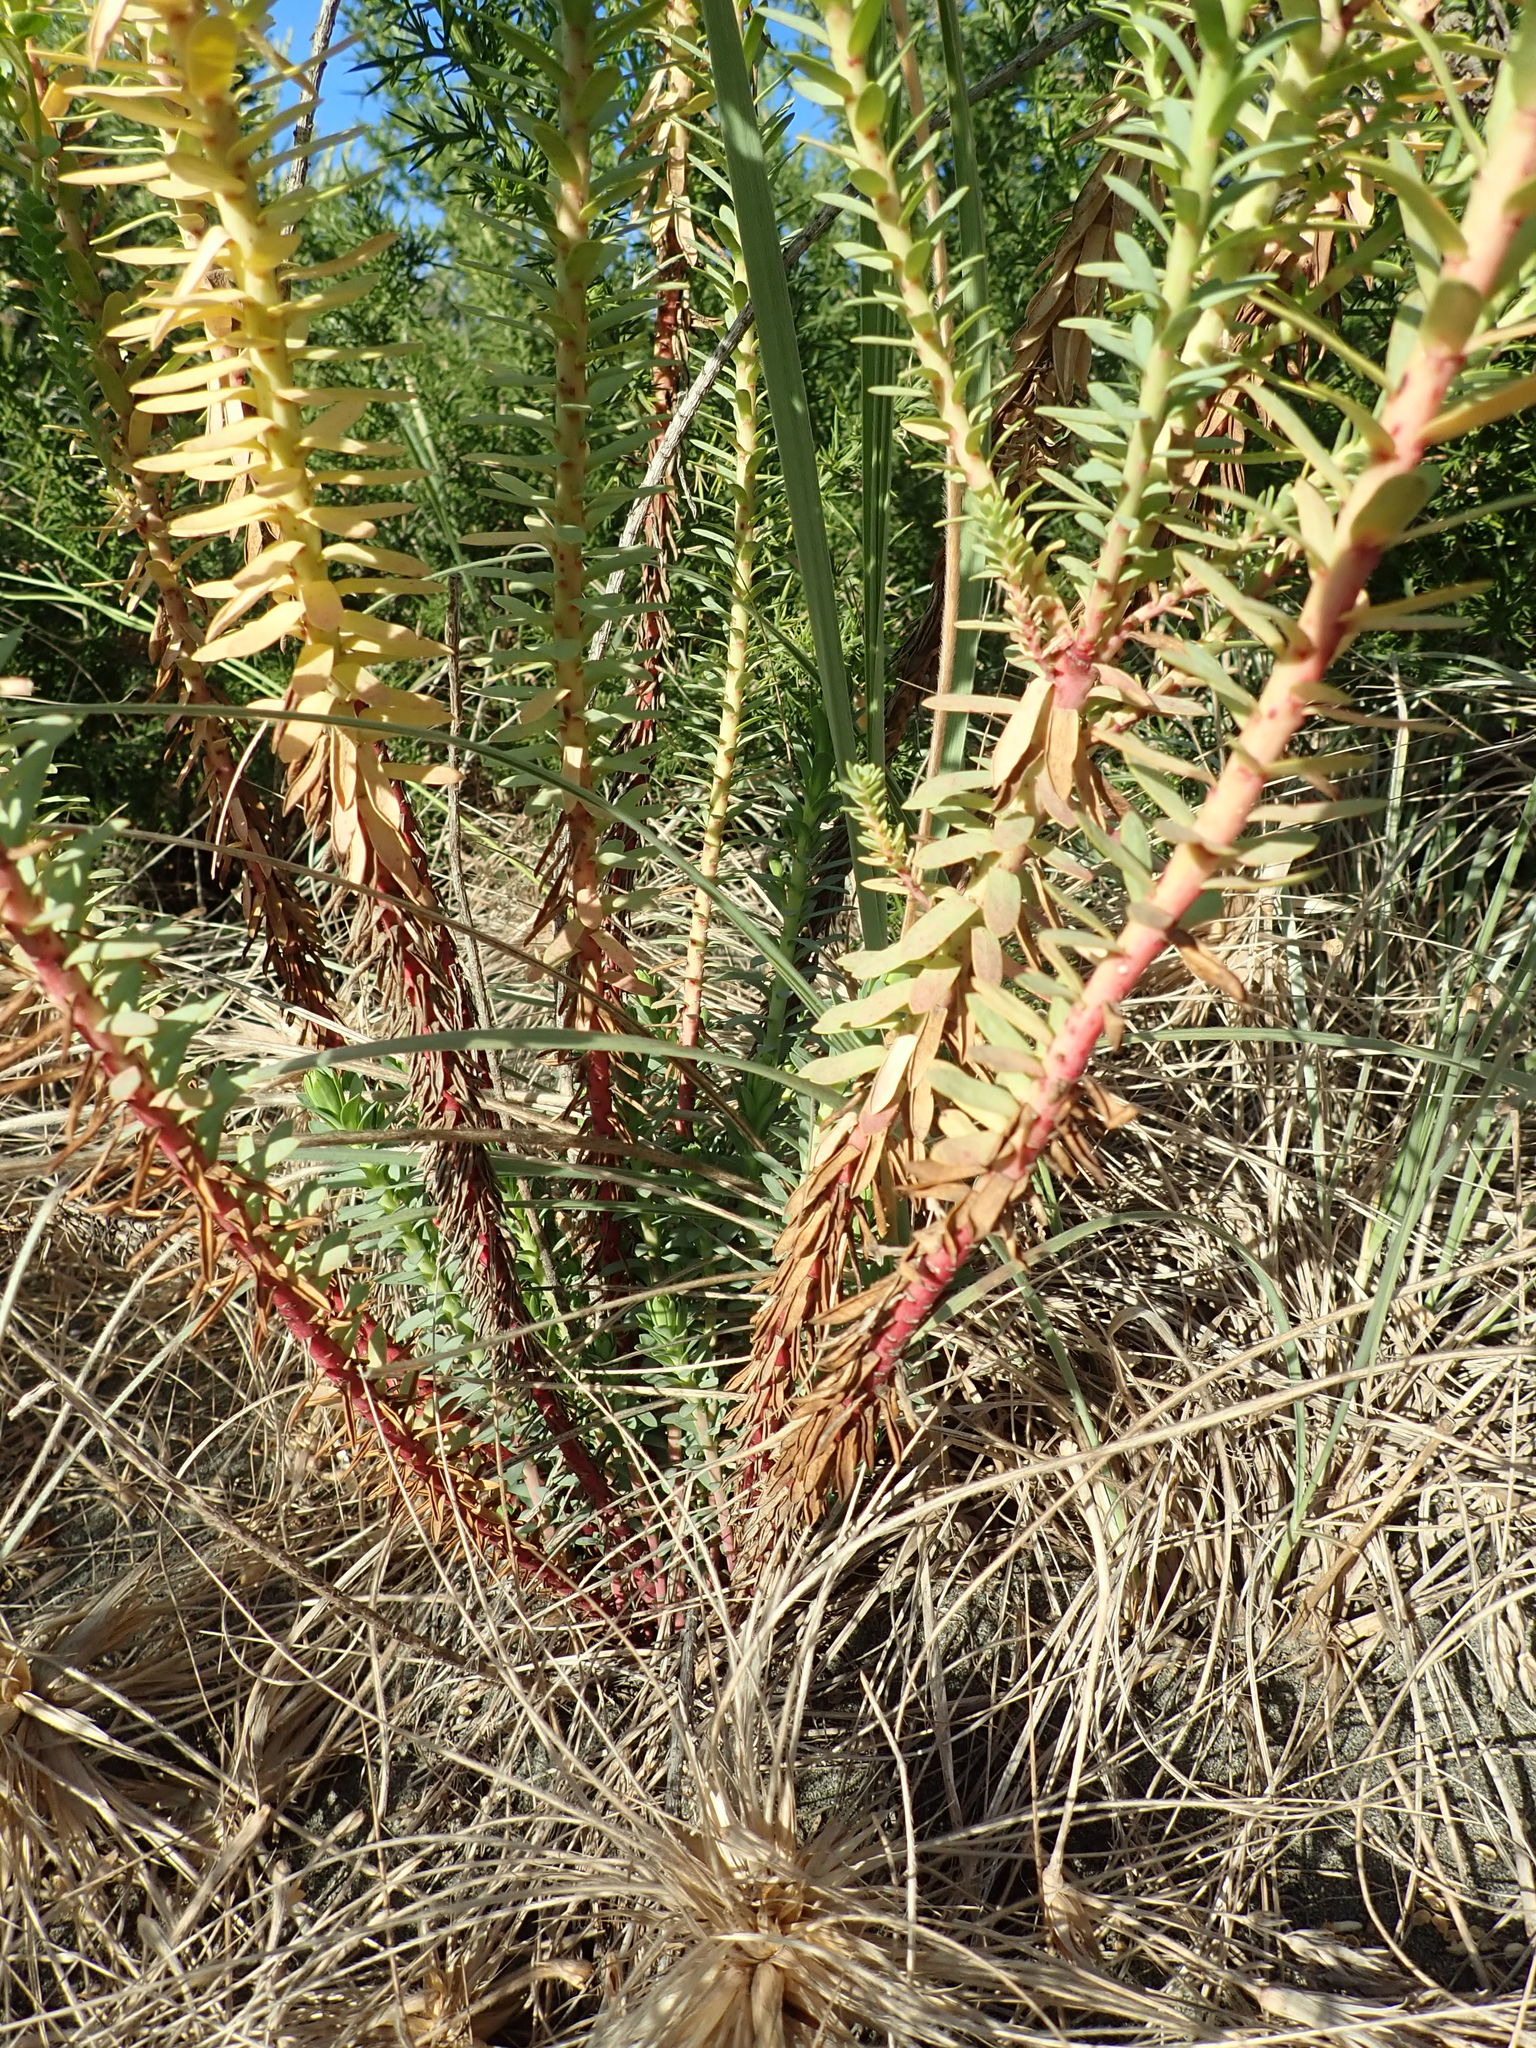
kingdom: Plantae
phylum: Tracheophyta
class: Magnoliopsida
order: Malpighiales
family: Euphorbiaceae
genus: Euphorbia
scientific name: Euphorbia paralias
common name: Sea spurge
